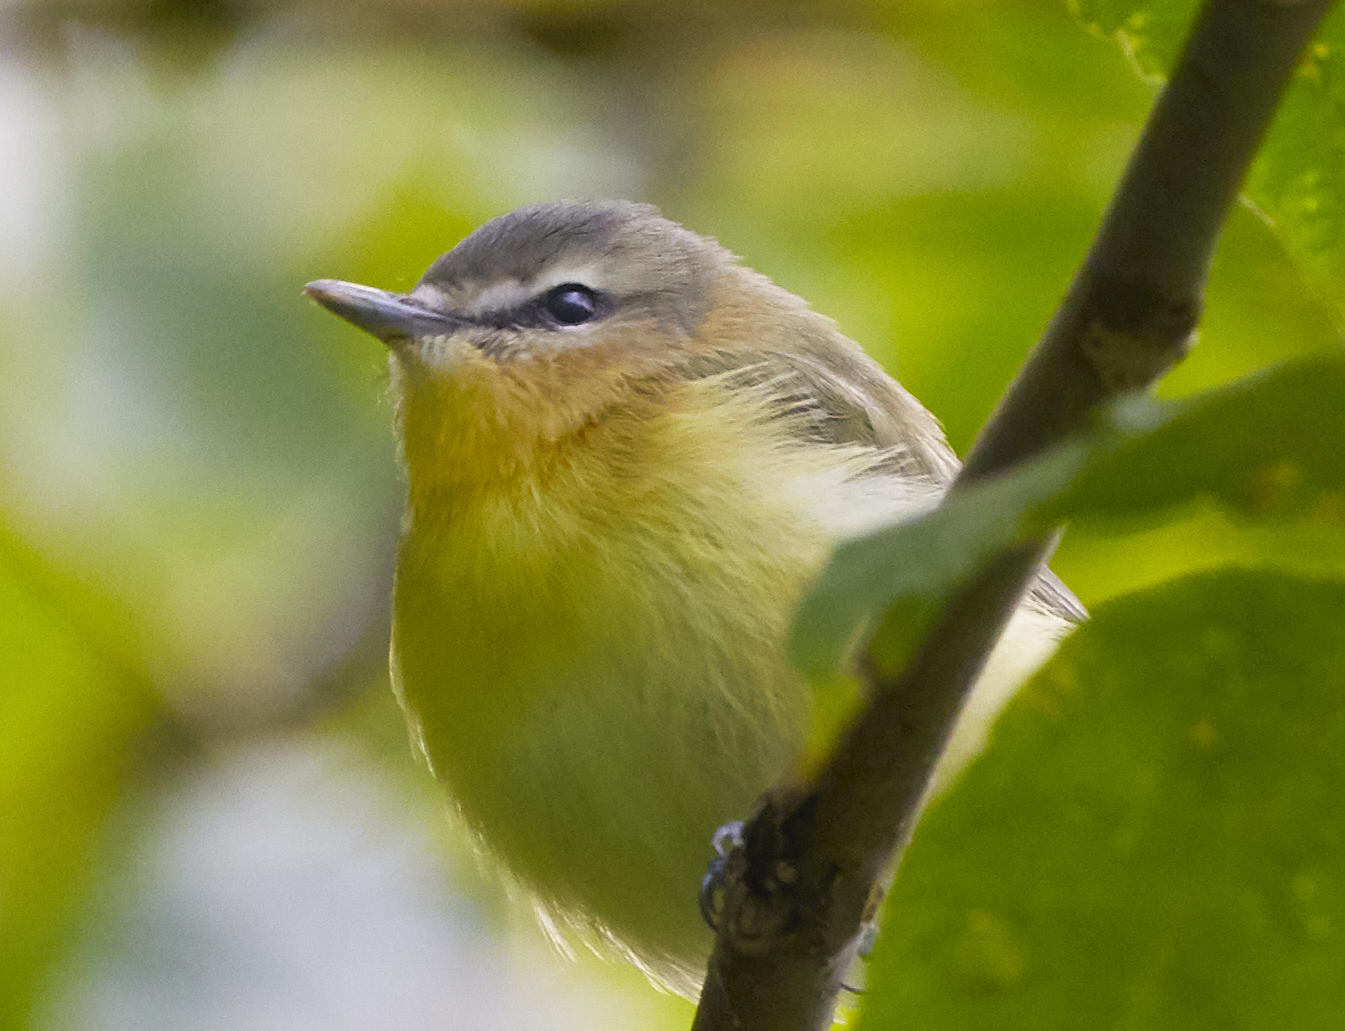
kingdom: Animalia
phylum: Chordata
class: Aves
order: Passeriformes
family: Vireonidae
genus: Vireo
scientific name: Vireo philadelphicus
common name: Philadelphia vireo
